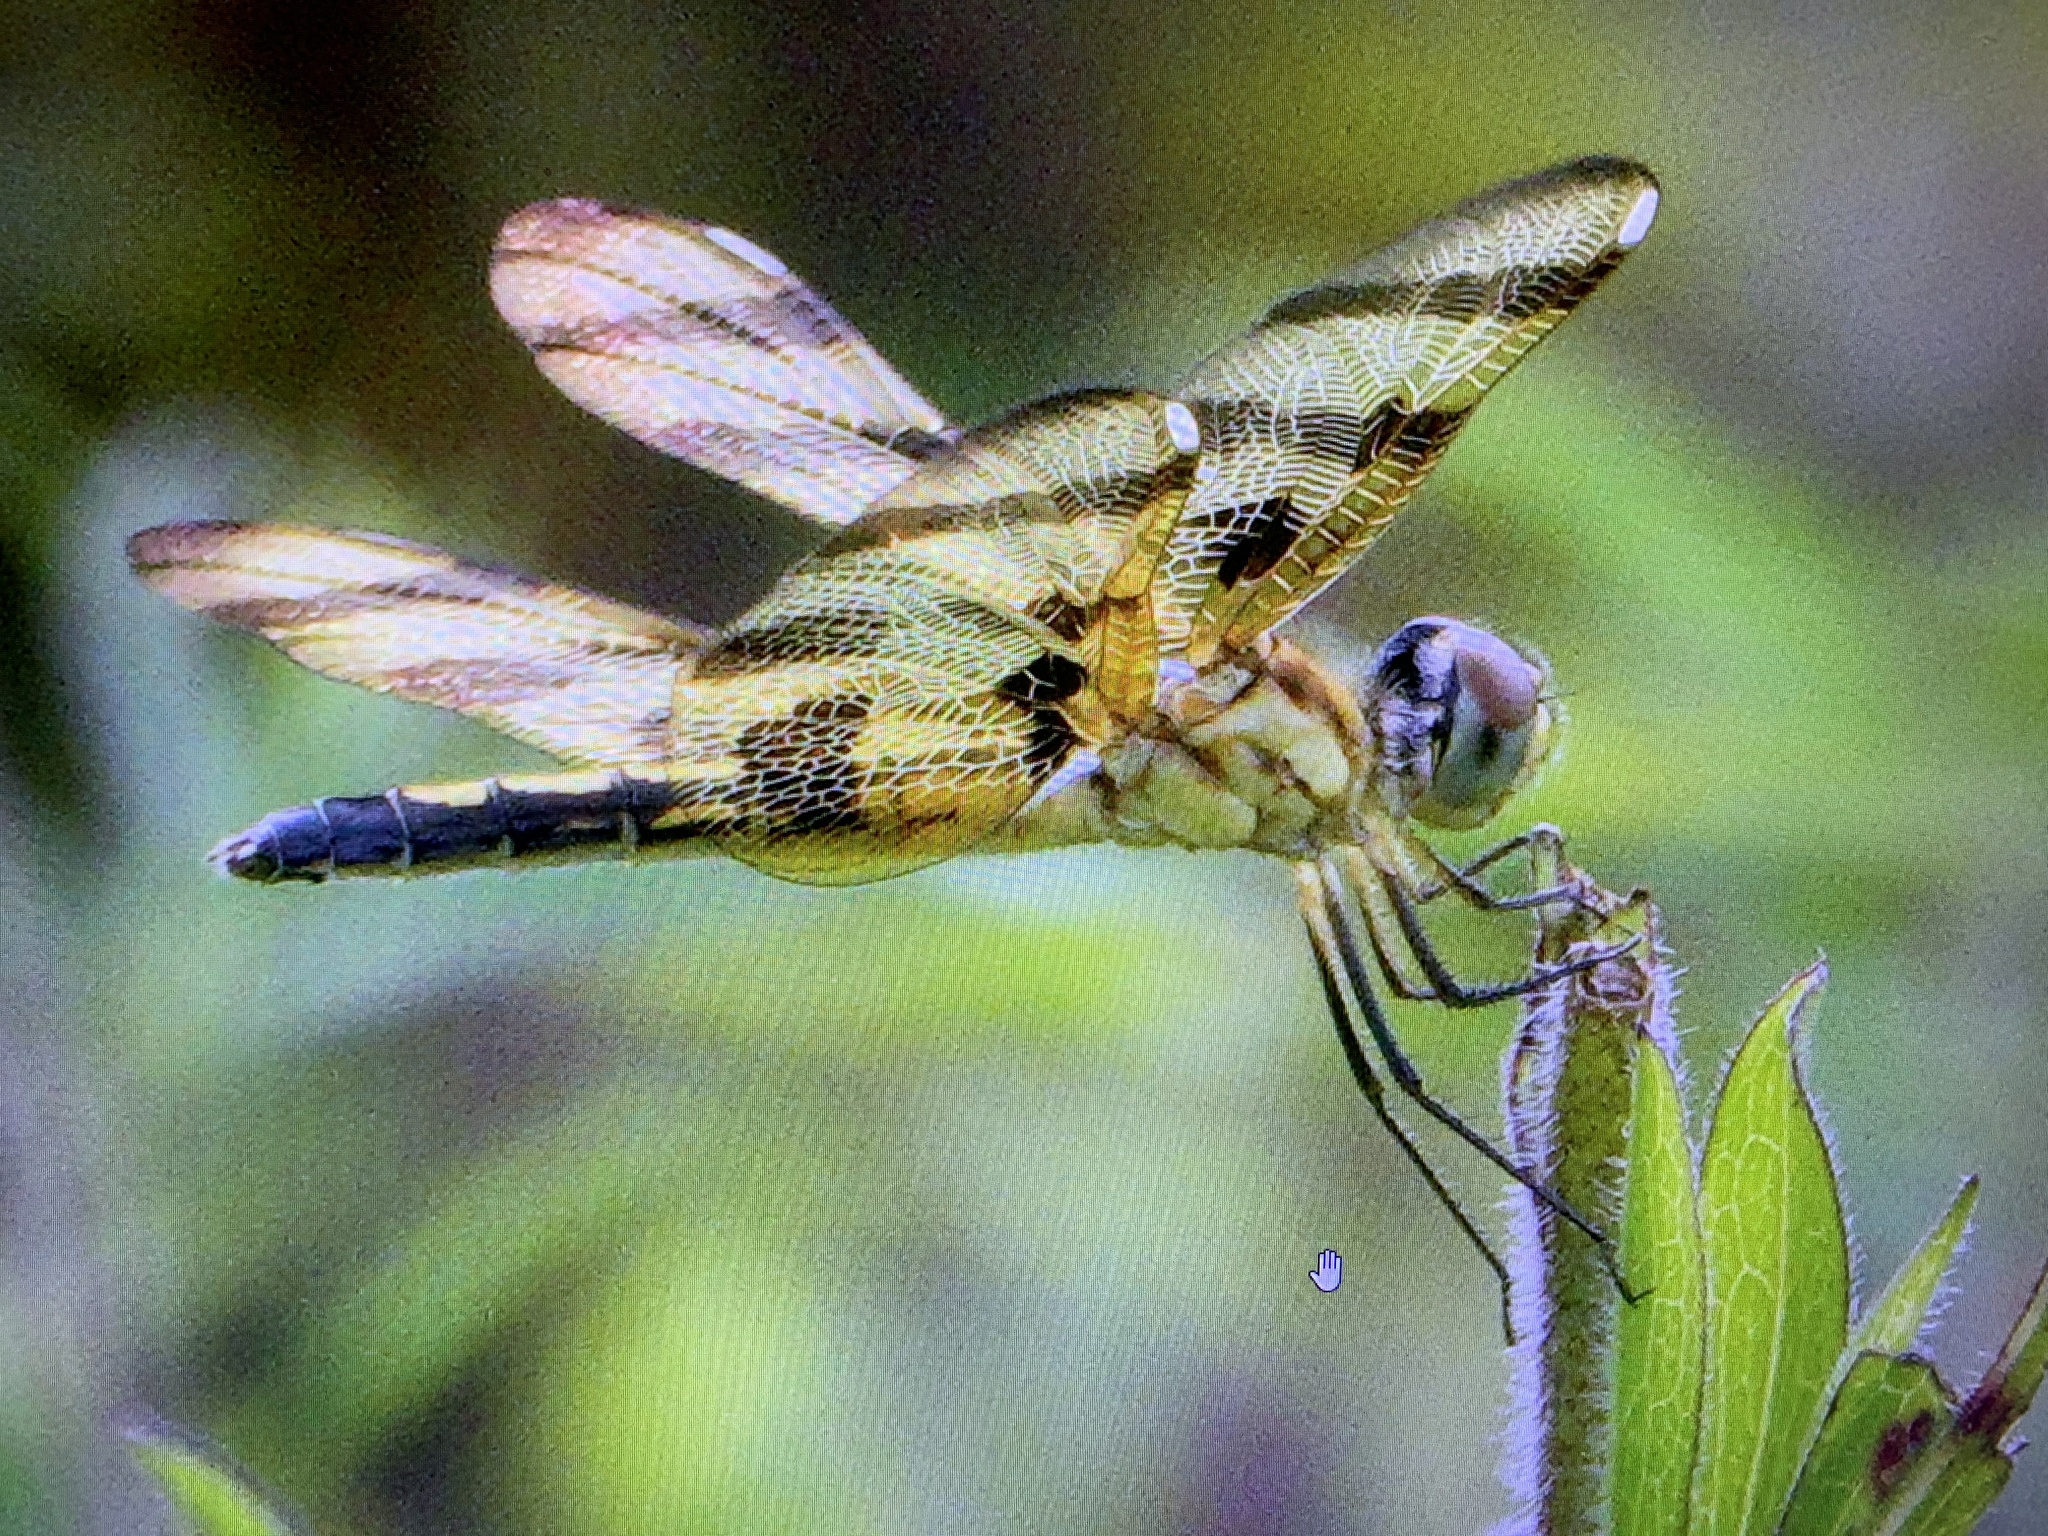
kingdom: Animalia
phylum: Arthropoda
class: Insecta
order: Odonata
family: Libellulidae
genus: Celithemis
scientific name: Celithemis eponina
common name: Halloween pennant
